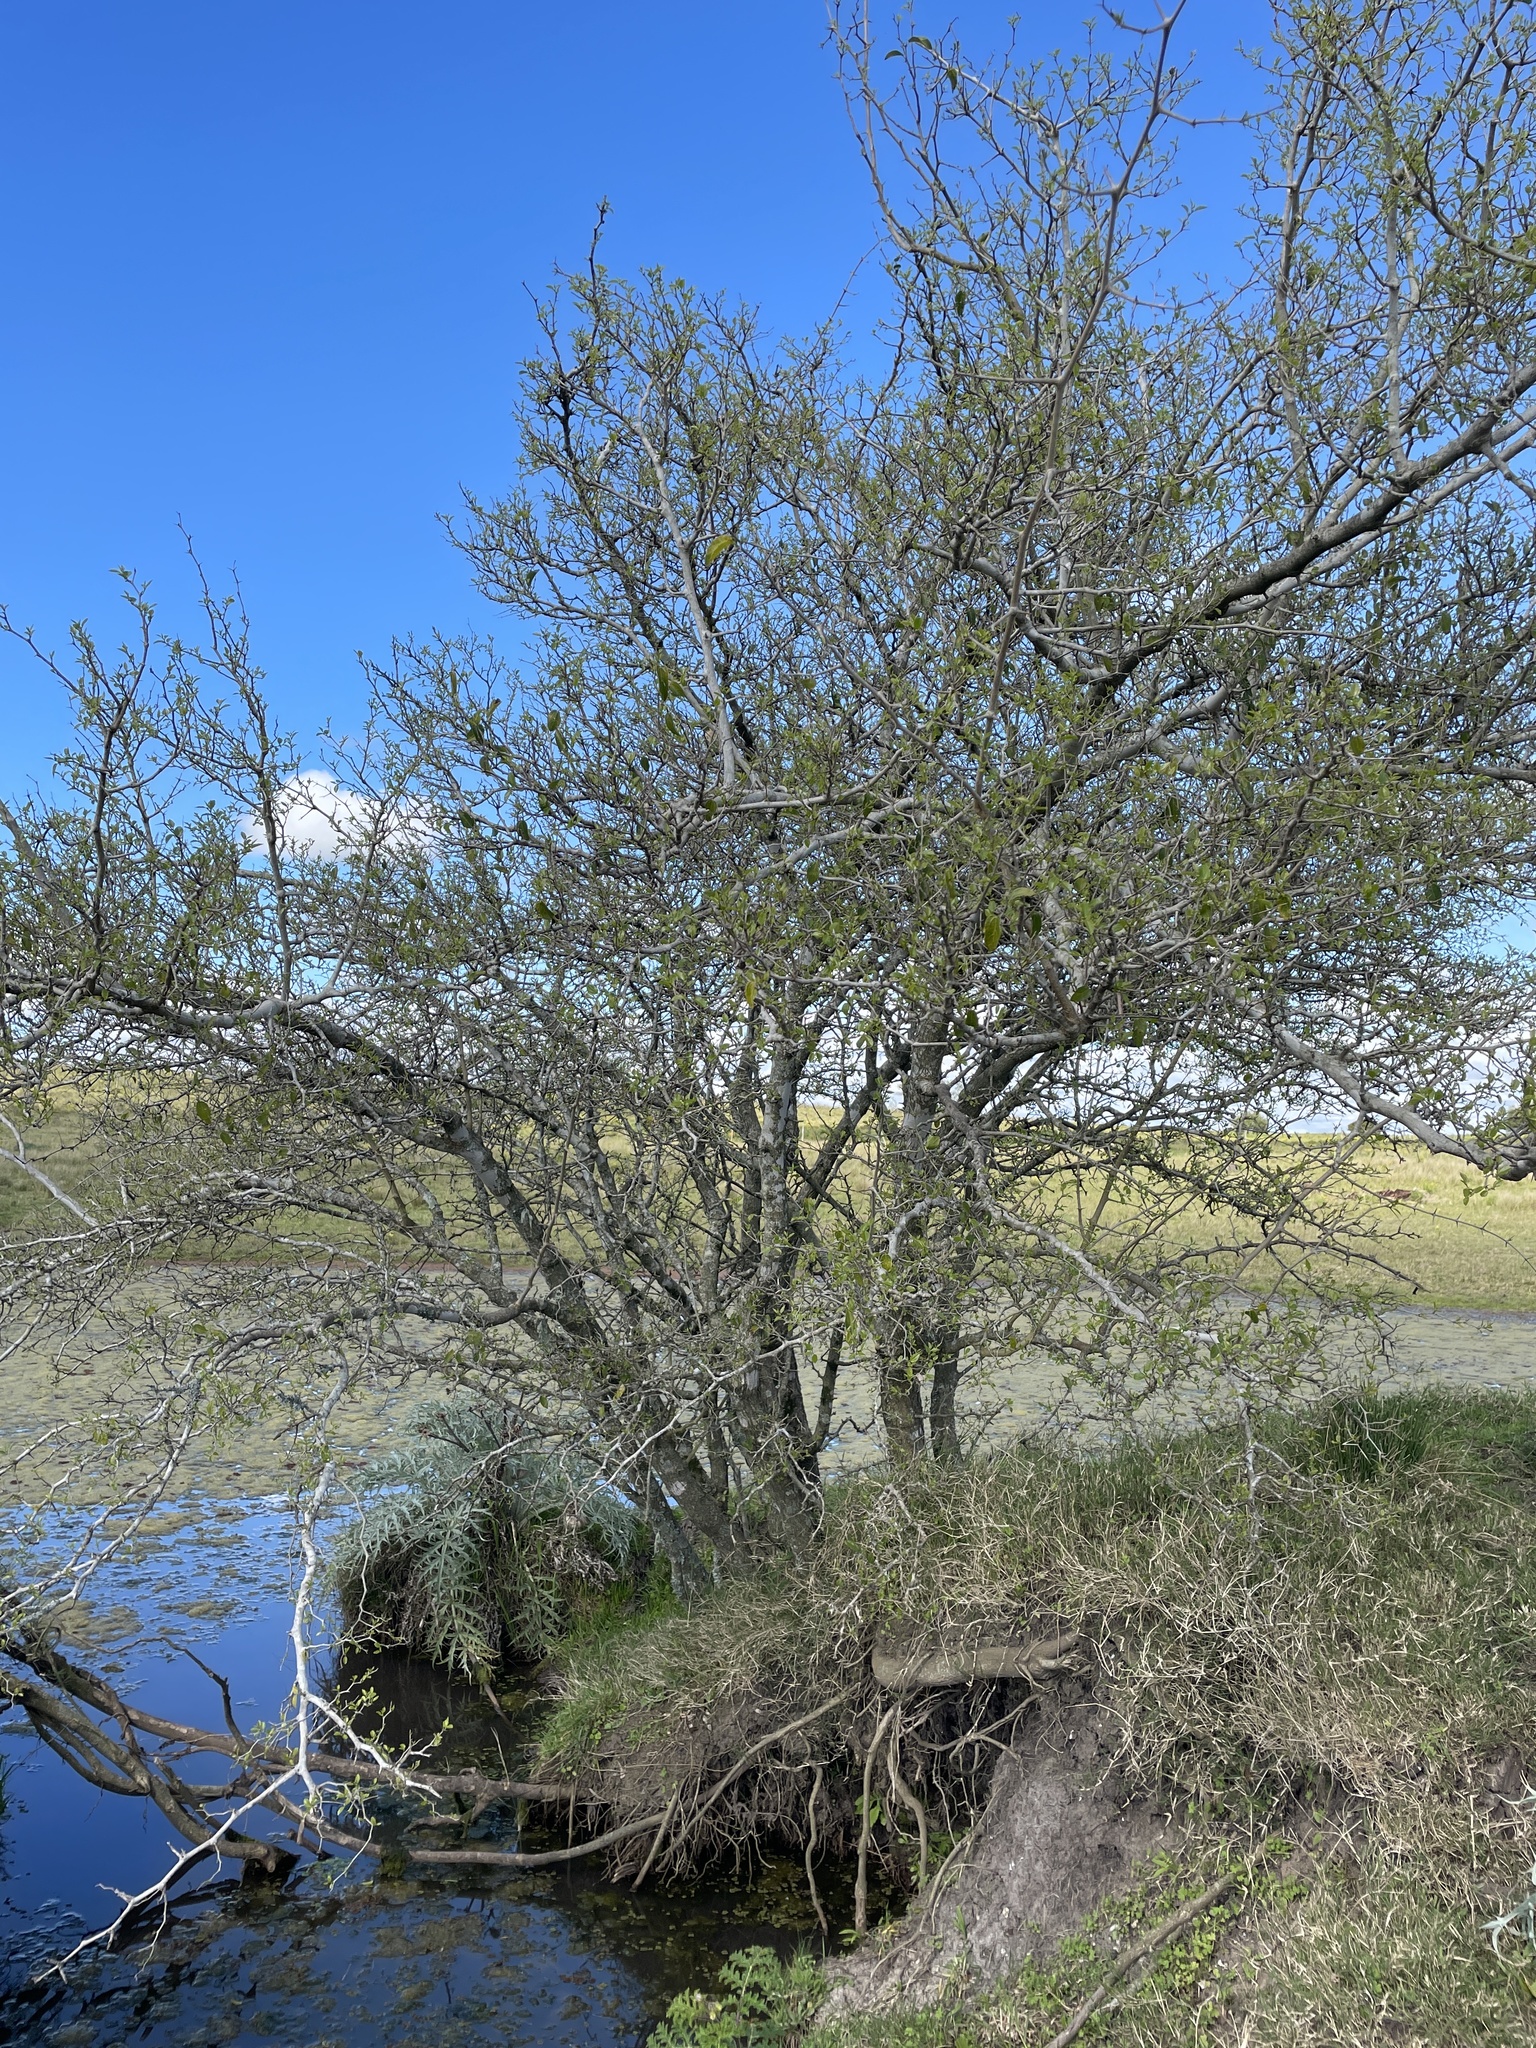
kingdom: Plantae
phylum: Tracheophyta
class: Magnoliopsida
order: Rosales
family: Cannabaceae
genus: Celtis
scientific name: Celtis tala
